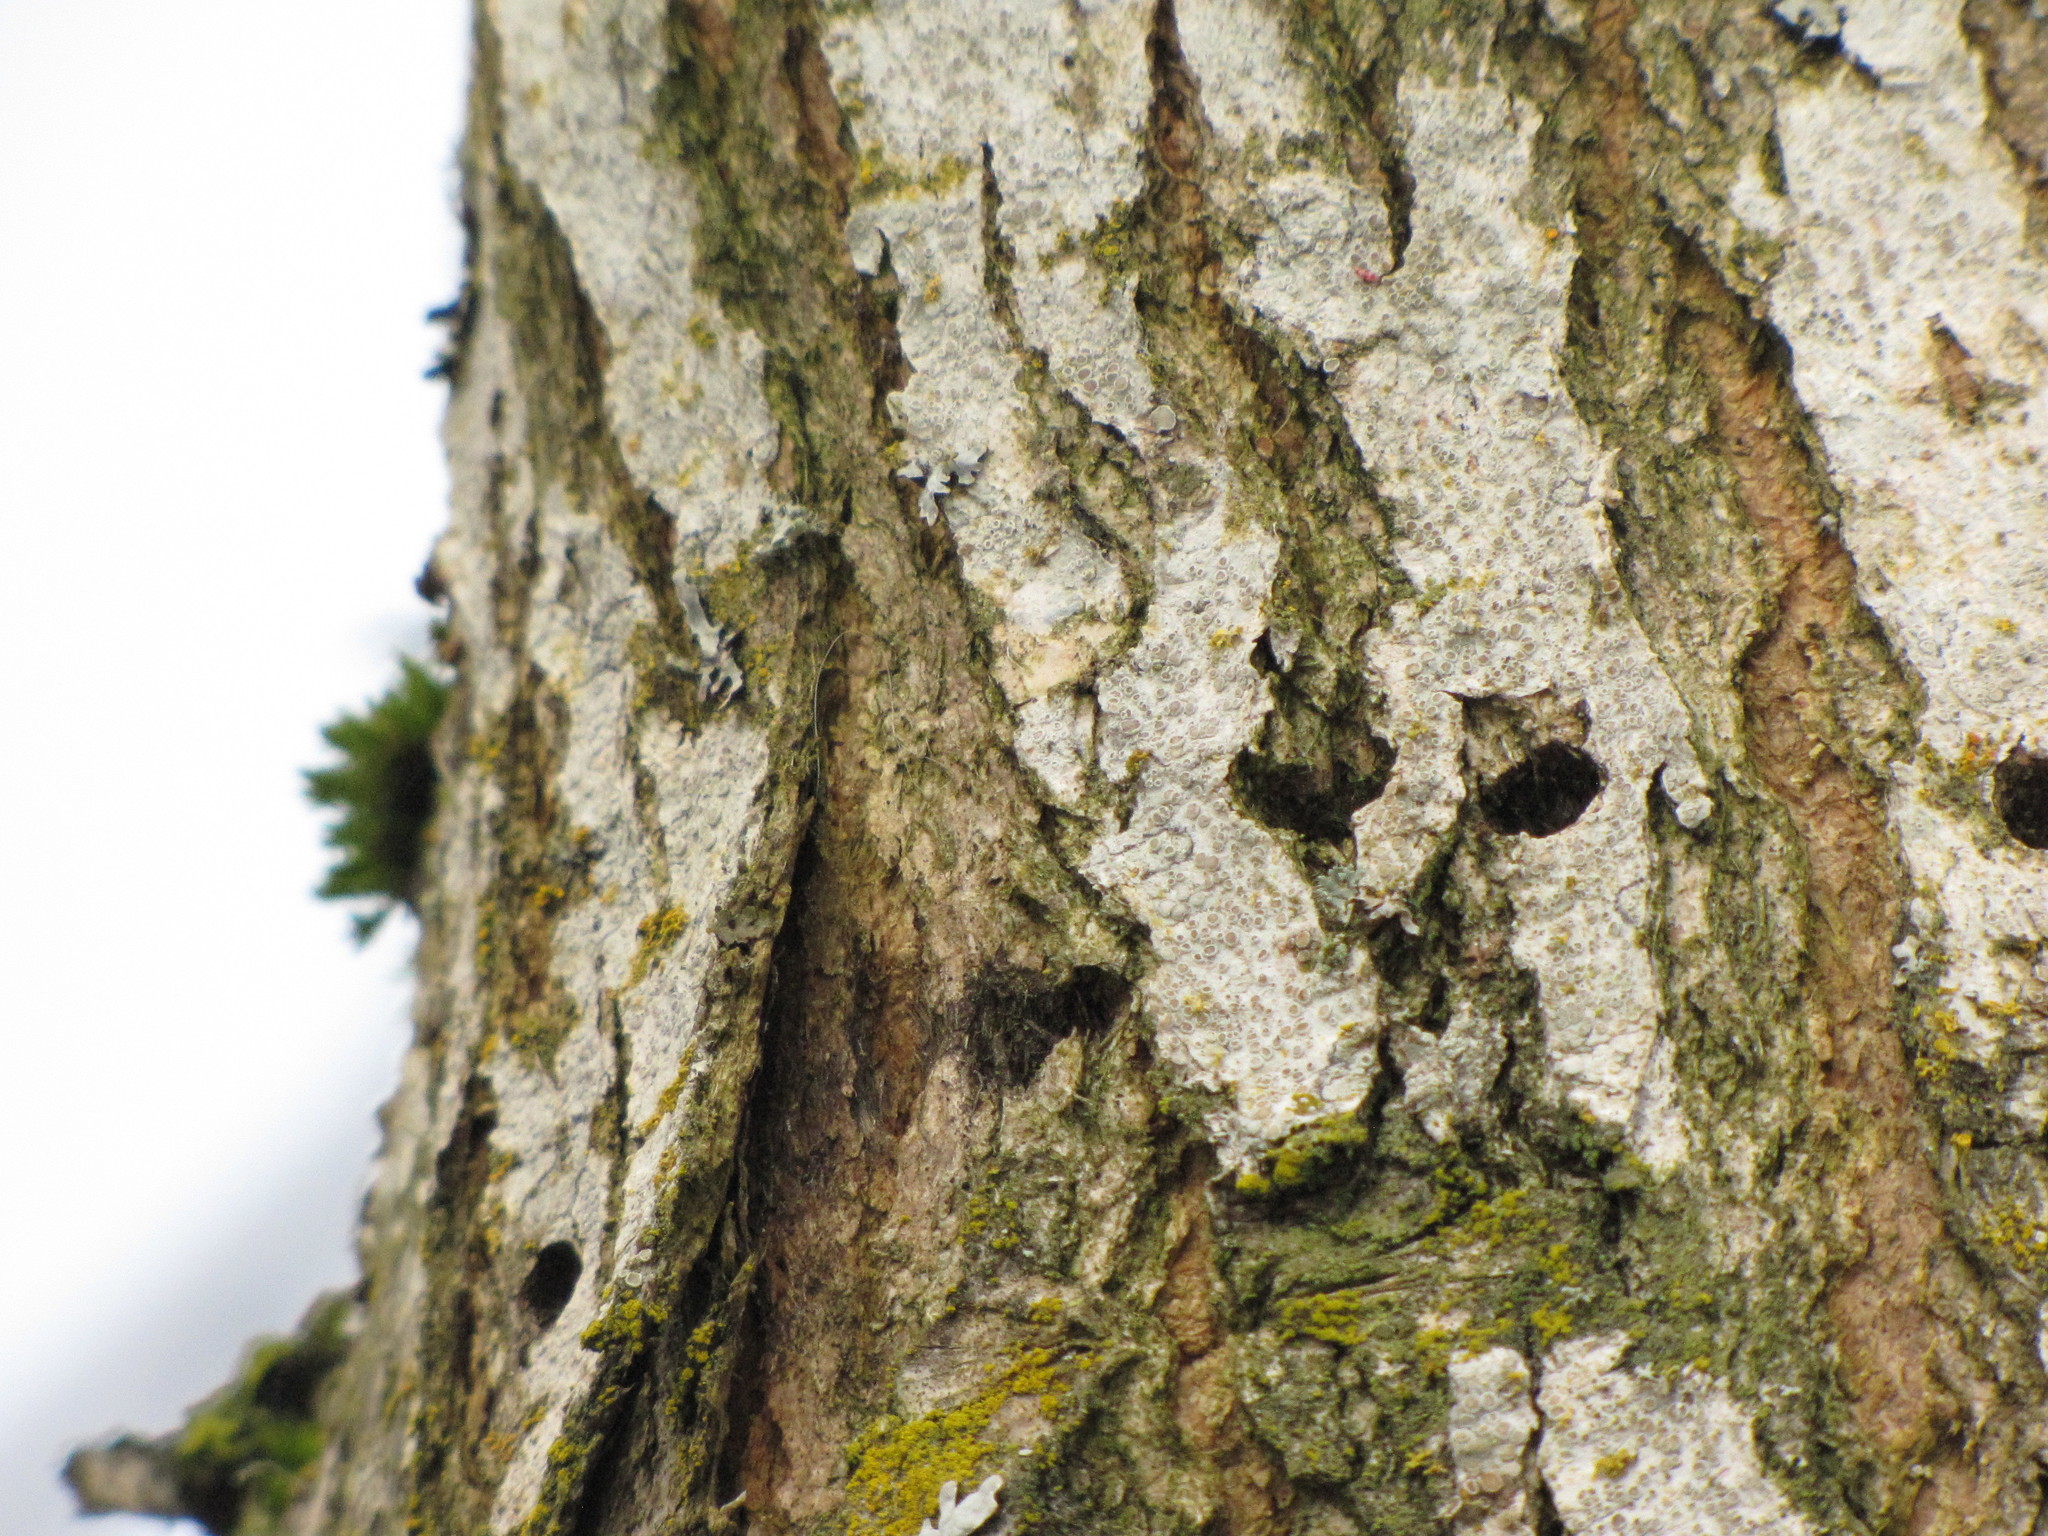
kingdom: Animalia
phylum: Chordata
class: Aves
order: Piciformes
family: Picidae
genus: Sphyrapicus
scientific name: Sphyrapicus ruber
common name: Red-breasted sapsucker
